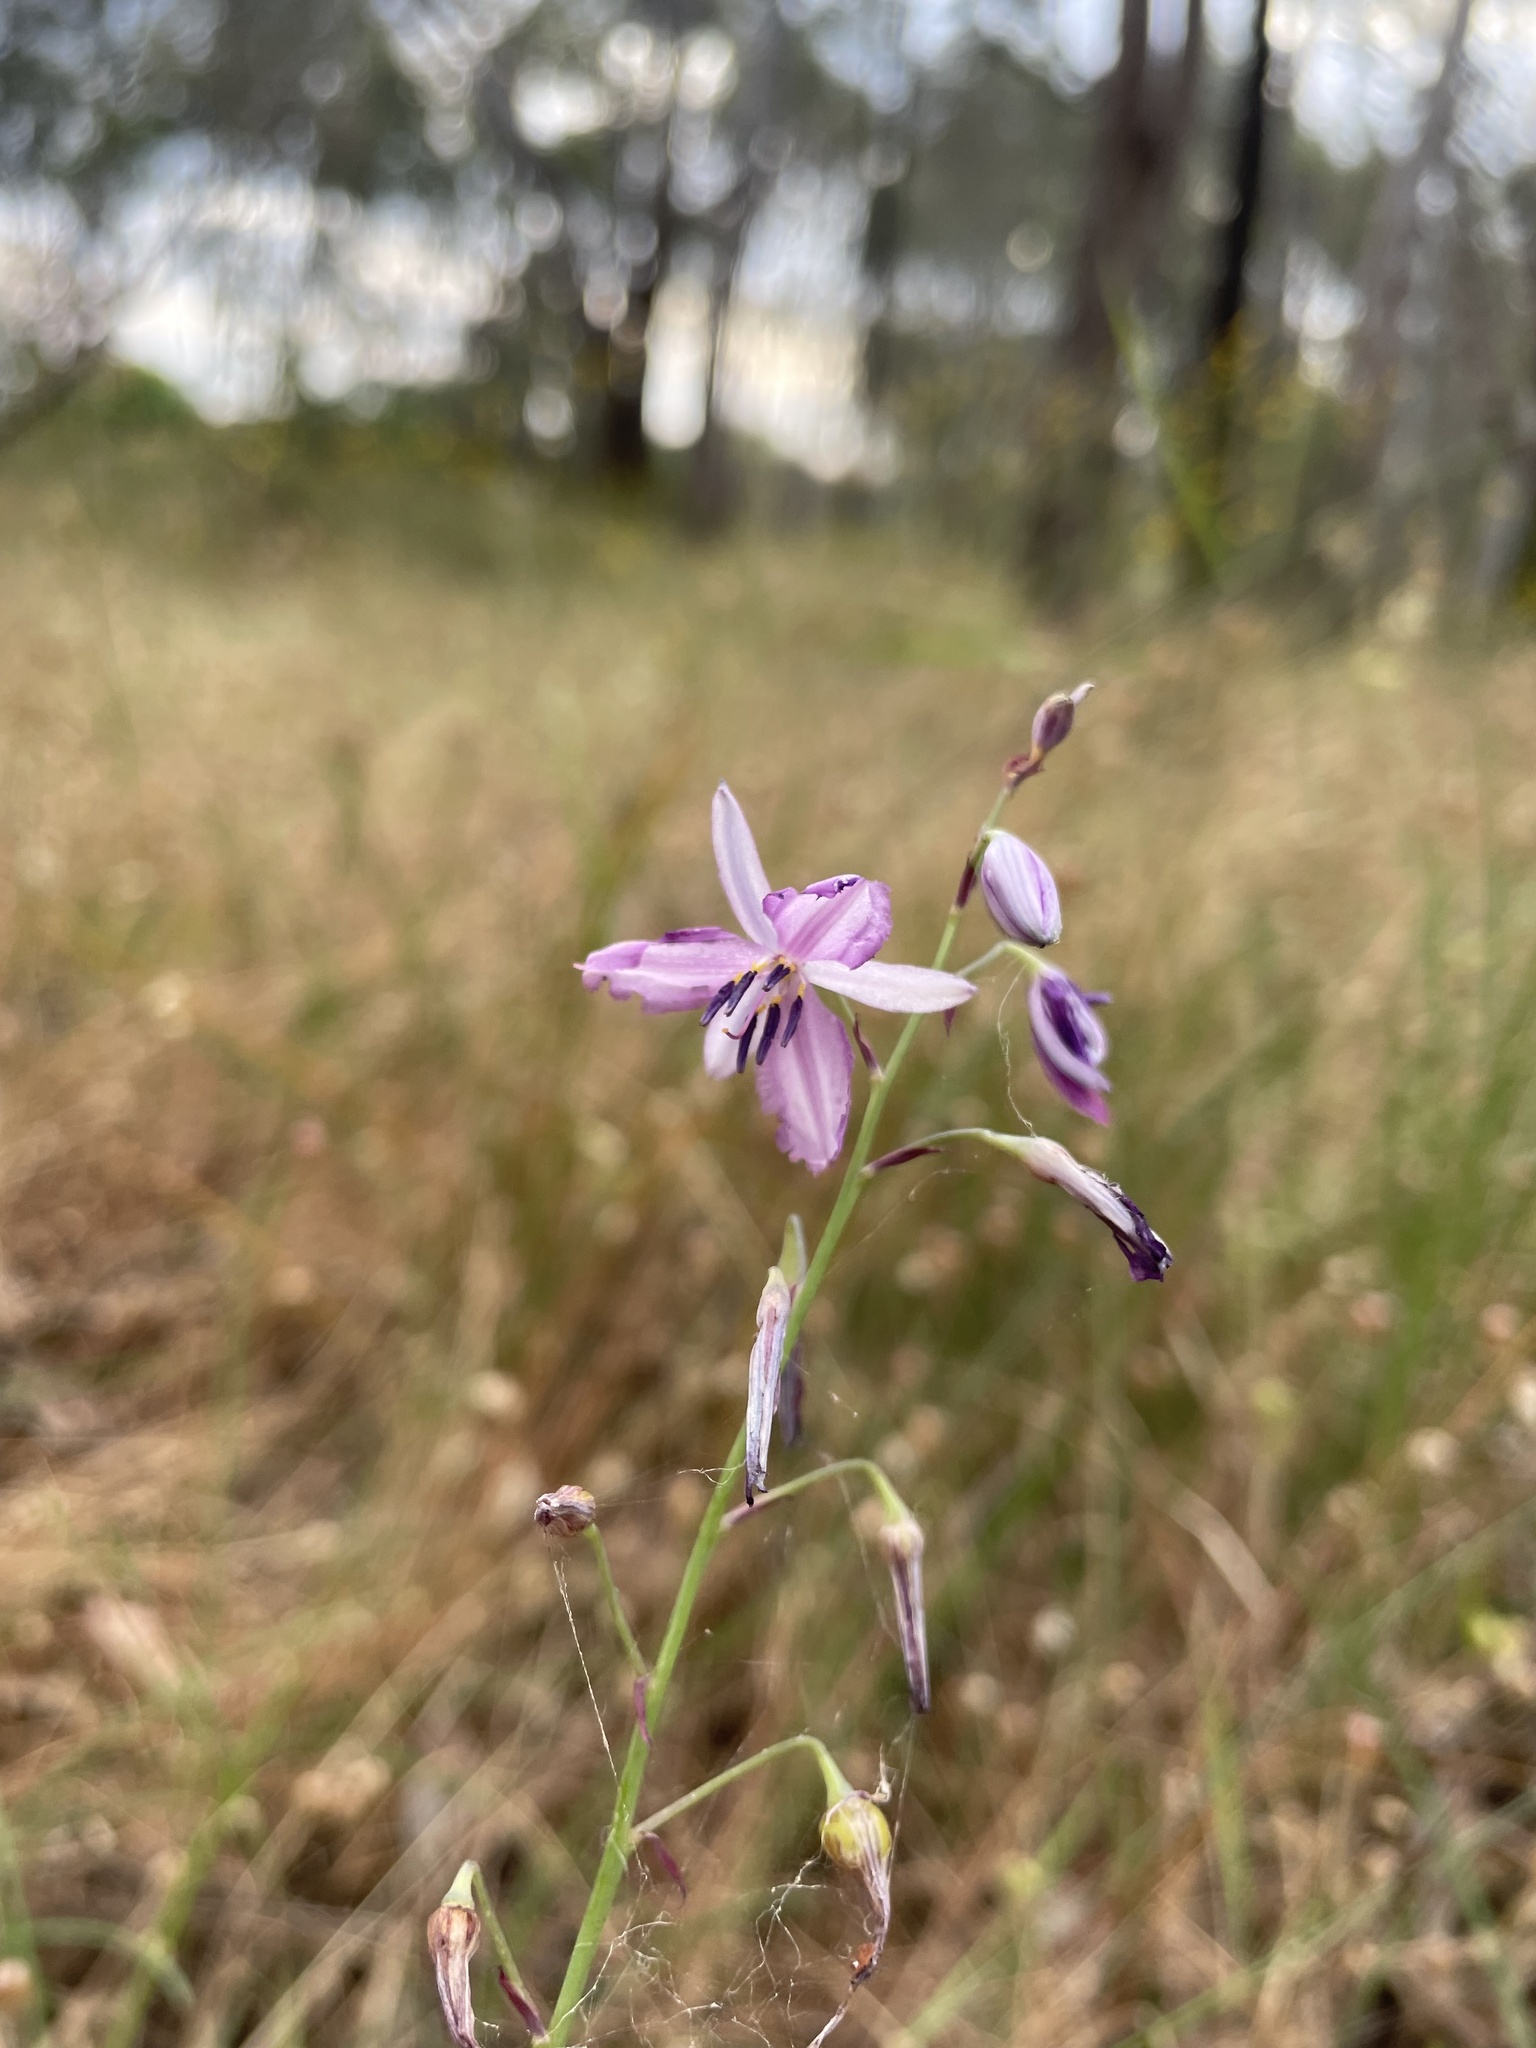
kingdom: Plantae
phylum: Tracheophyta
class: Liliopsida
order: Asparagales
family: Asparagaceae
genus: Arthropodium
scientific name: Arthropodium strictum
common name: Chocolate-lily
